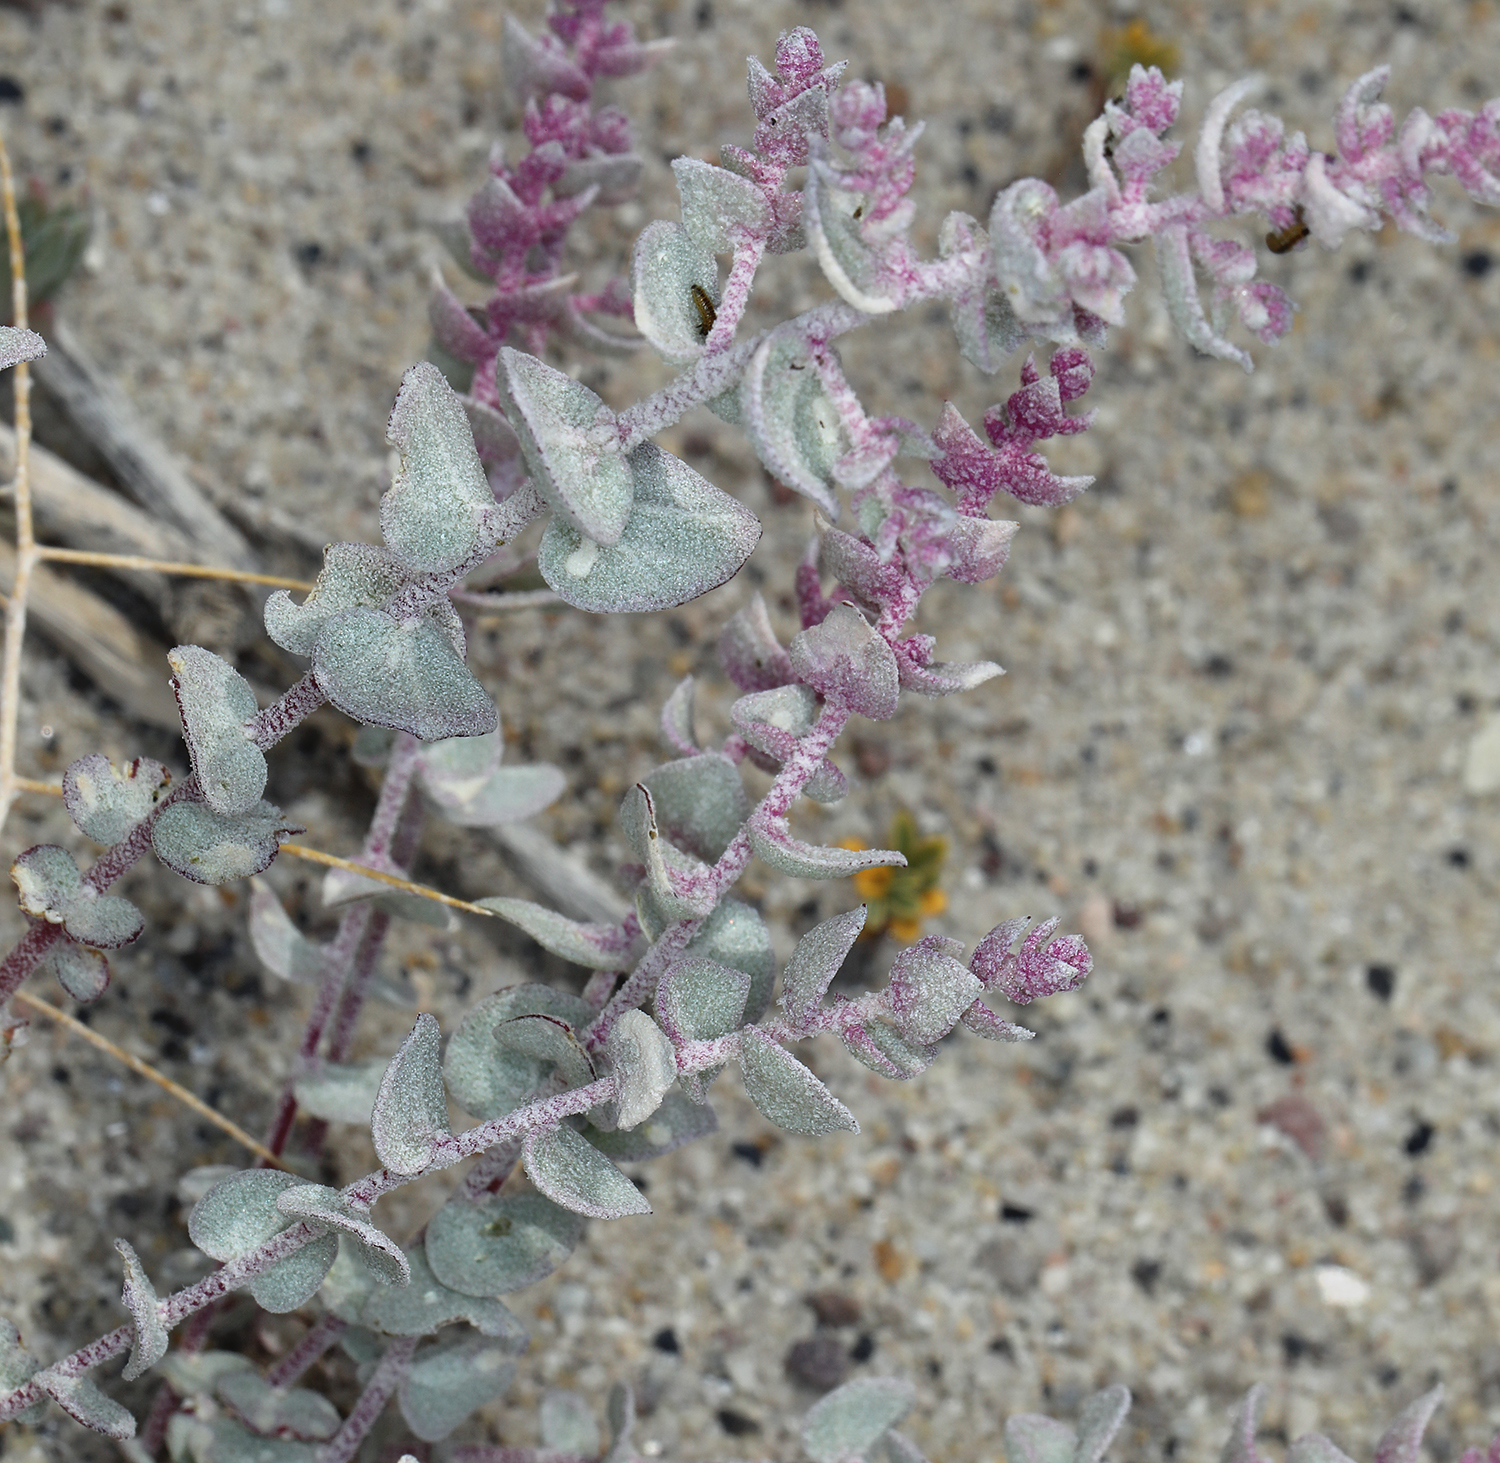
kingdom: Plantae
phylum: Tracheophyta
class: Magnoliopsida
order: Caryophyllales
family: Amaranthaceae
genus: Atriplex
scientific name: Atriplex parryi
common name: Parry's saltbush
